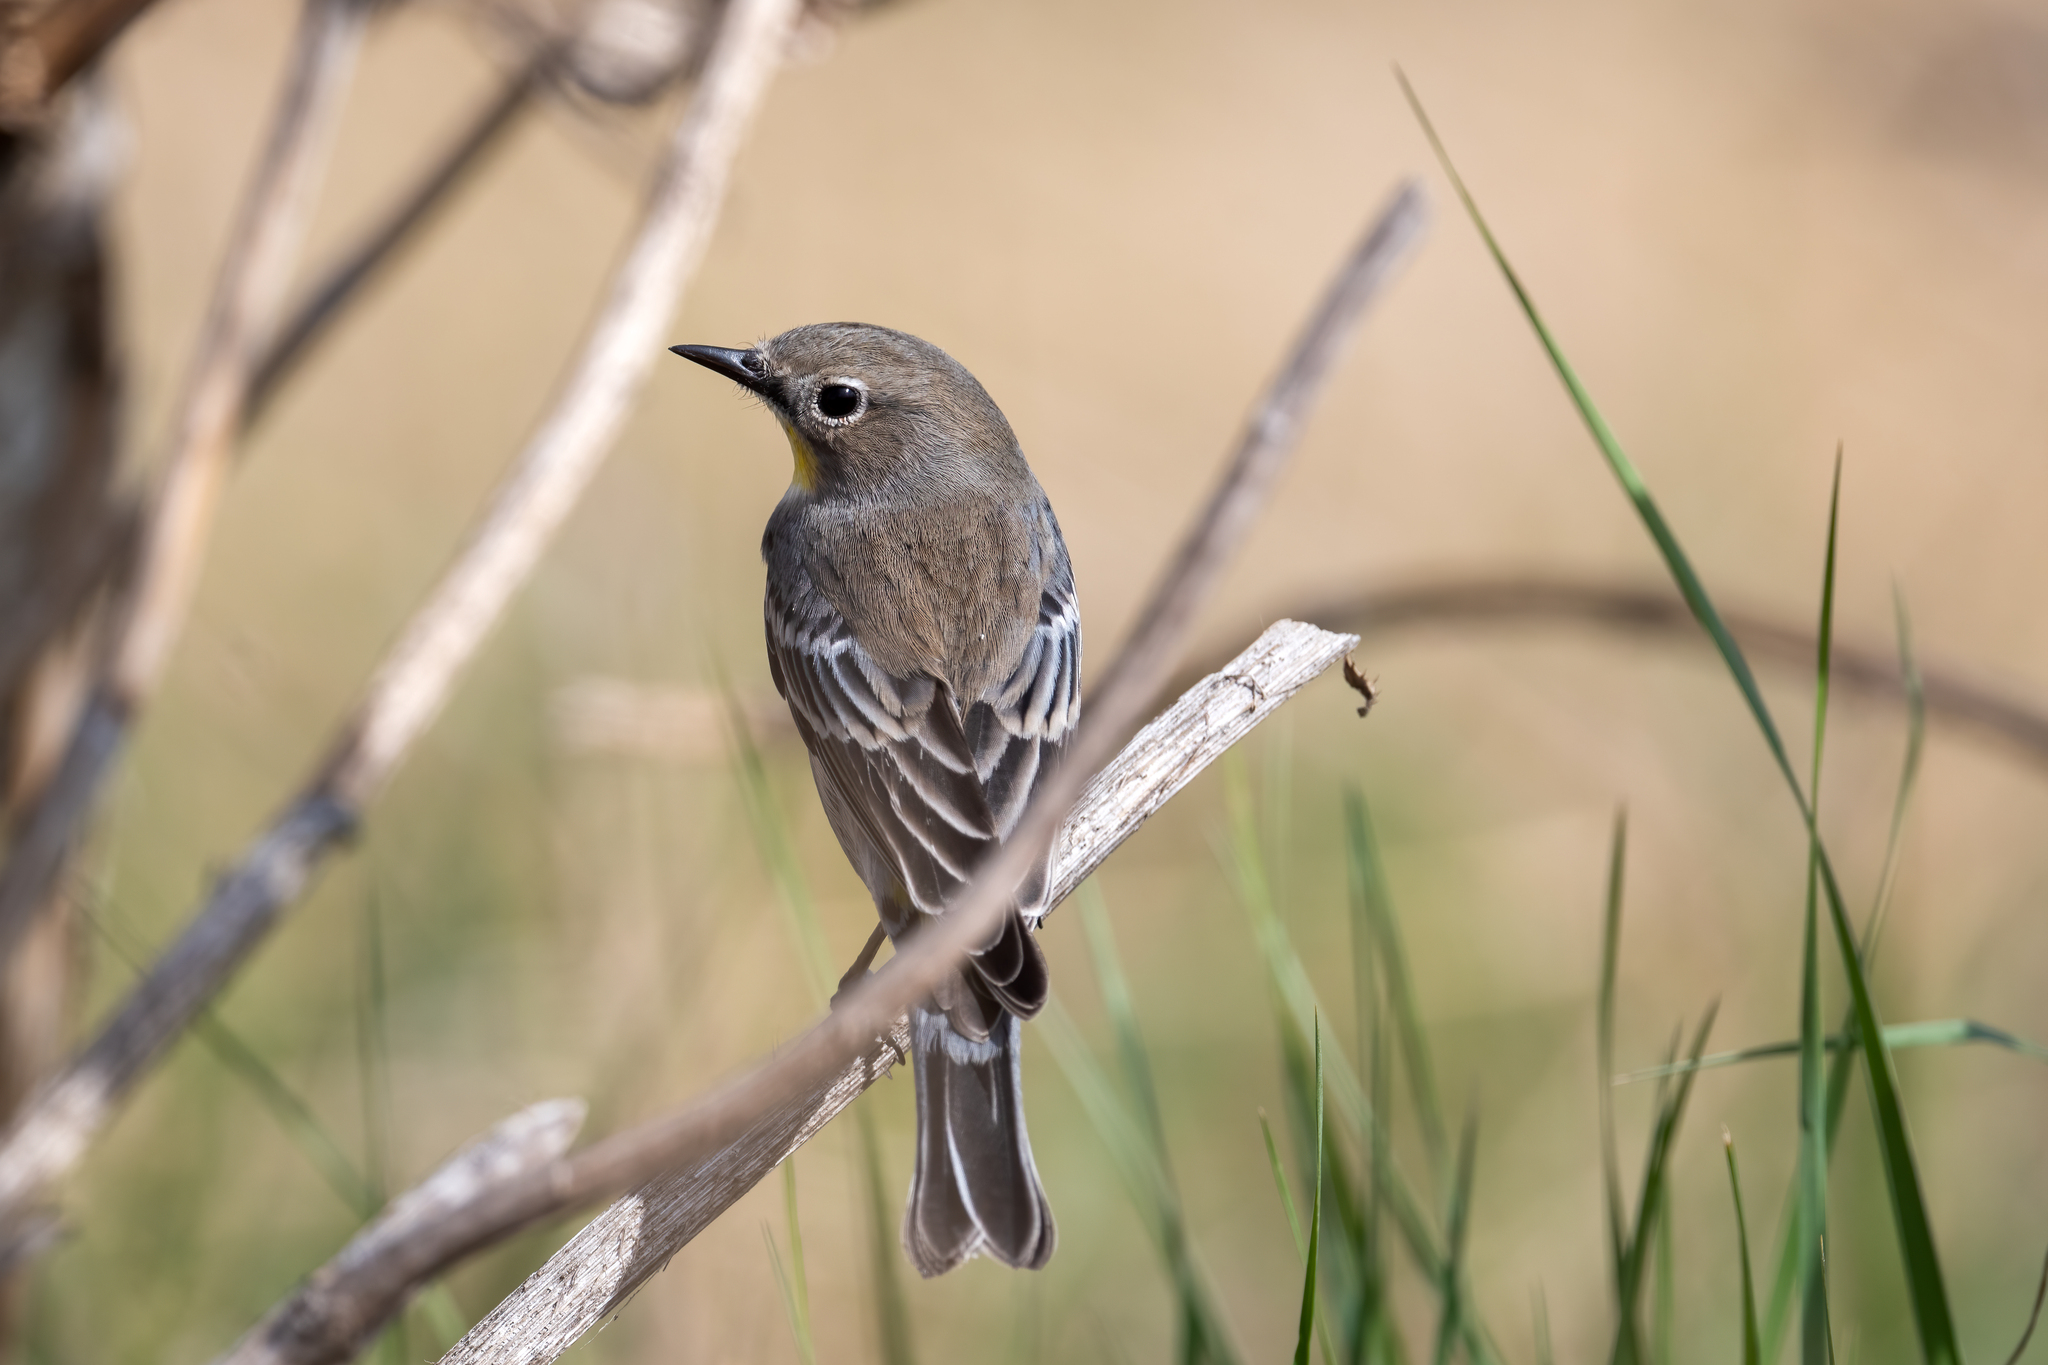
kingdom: Animalia
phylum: Chordata
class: Aves
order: Passeriformes
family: Parulidae
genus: Setophaga
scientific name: Setophaga coronata
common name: Myrtle warbler
